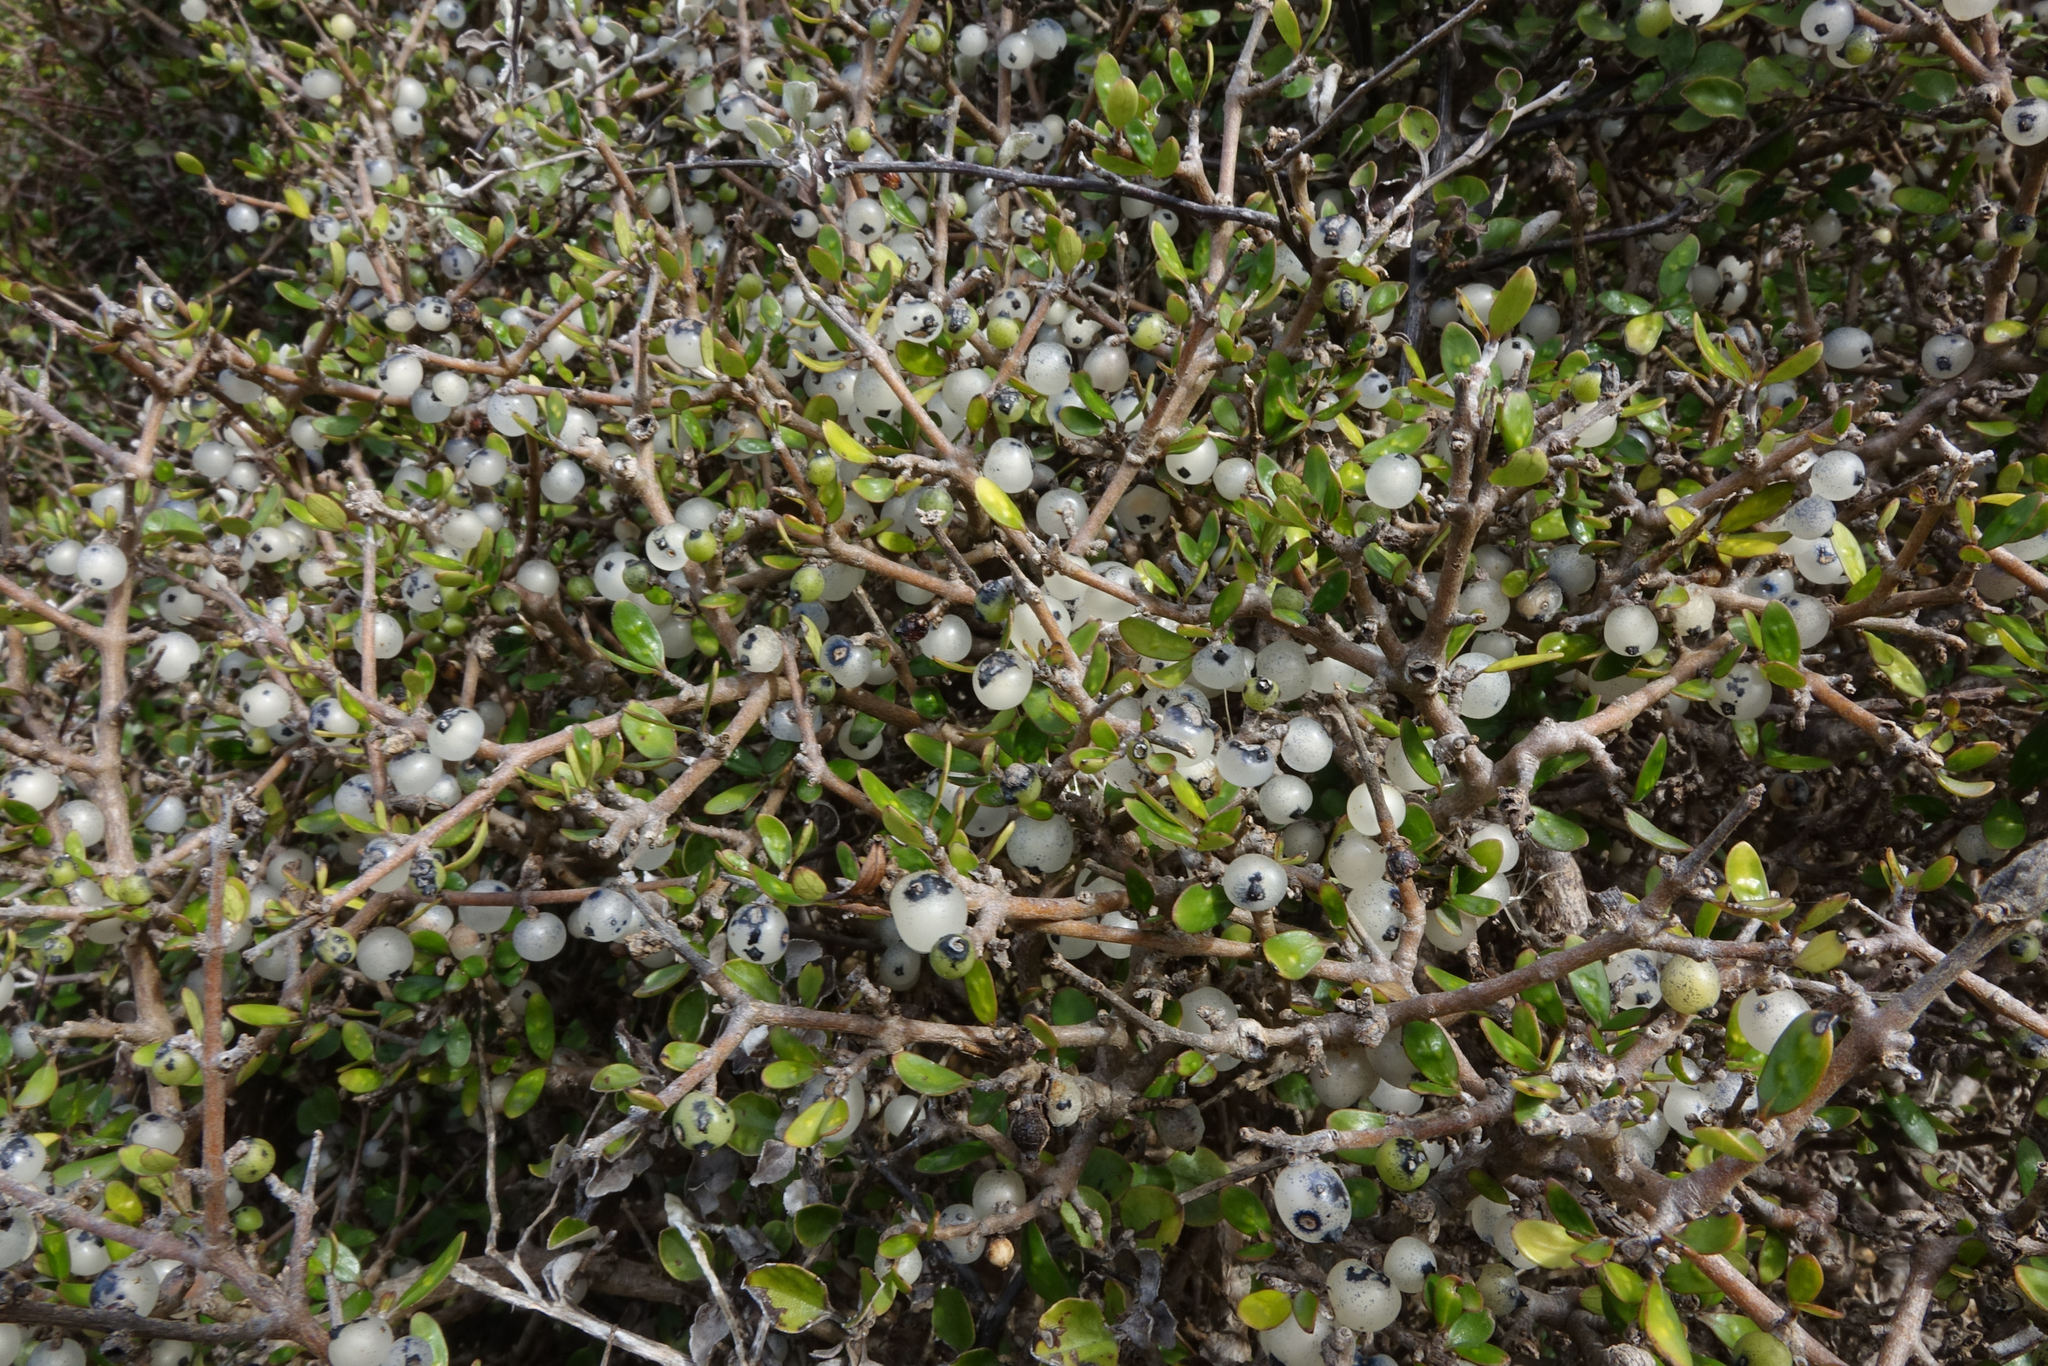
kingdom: Plantae
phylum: Tracheophyta
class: Magnoliopsida
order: Gentianales
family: Rubiaceae
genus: Coprosma
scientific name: Coprosma propinqua
